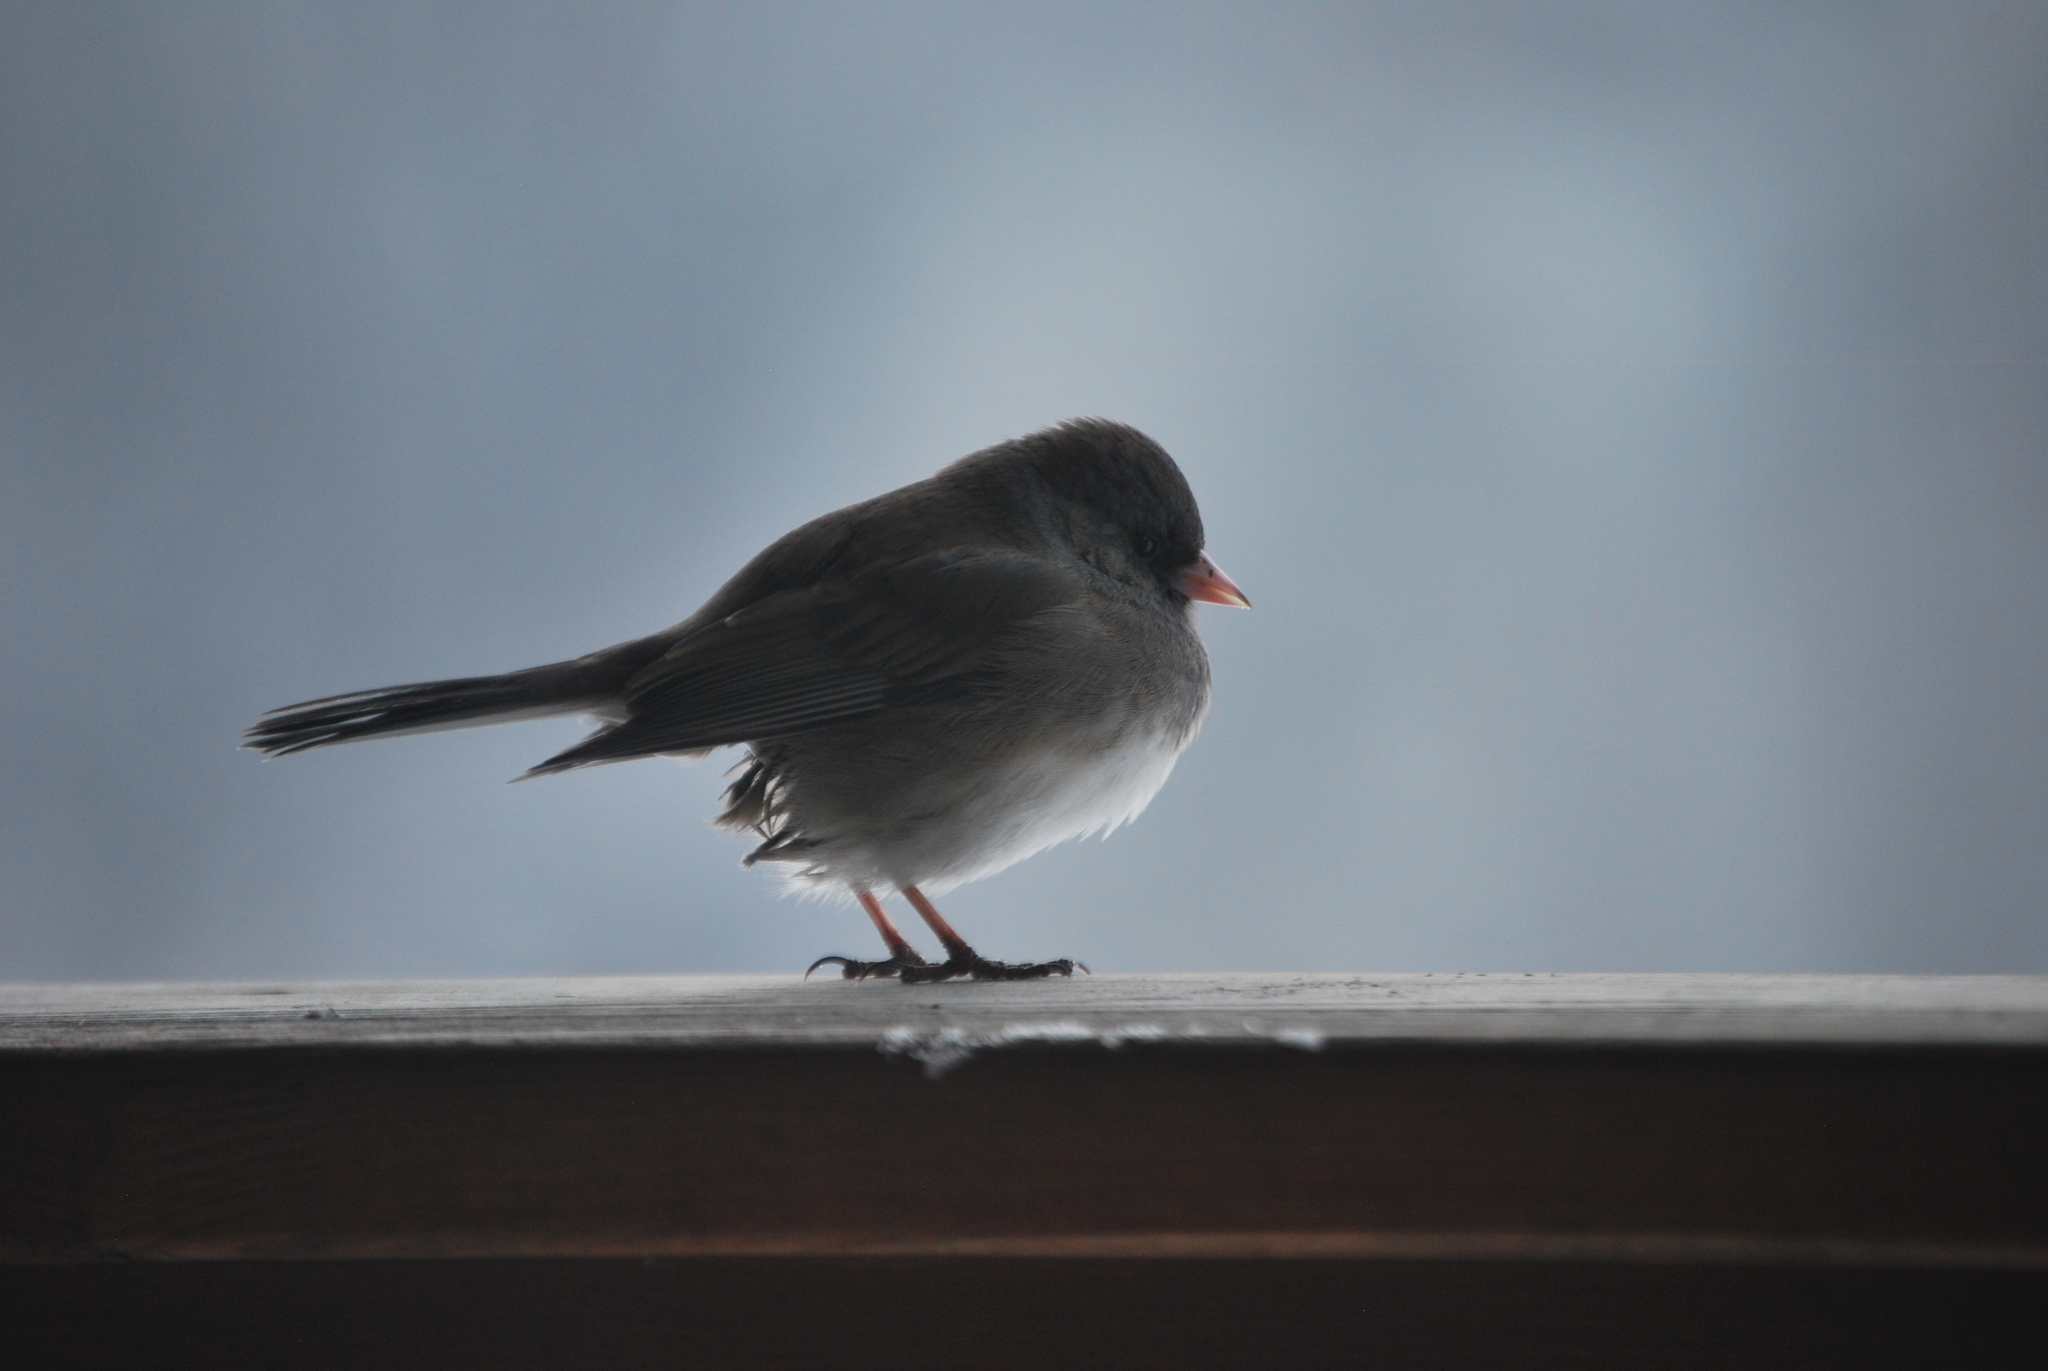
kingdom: Animalia
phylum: Chordata
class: Aves
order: Passeriformes
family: Passerellidae
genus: Junco
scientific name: Junco hyemalis
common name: Dark-eyed junco
